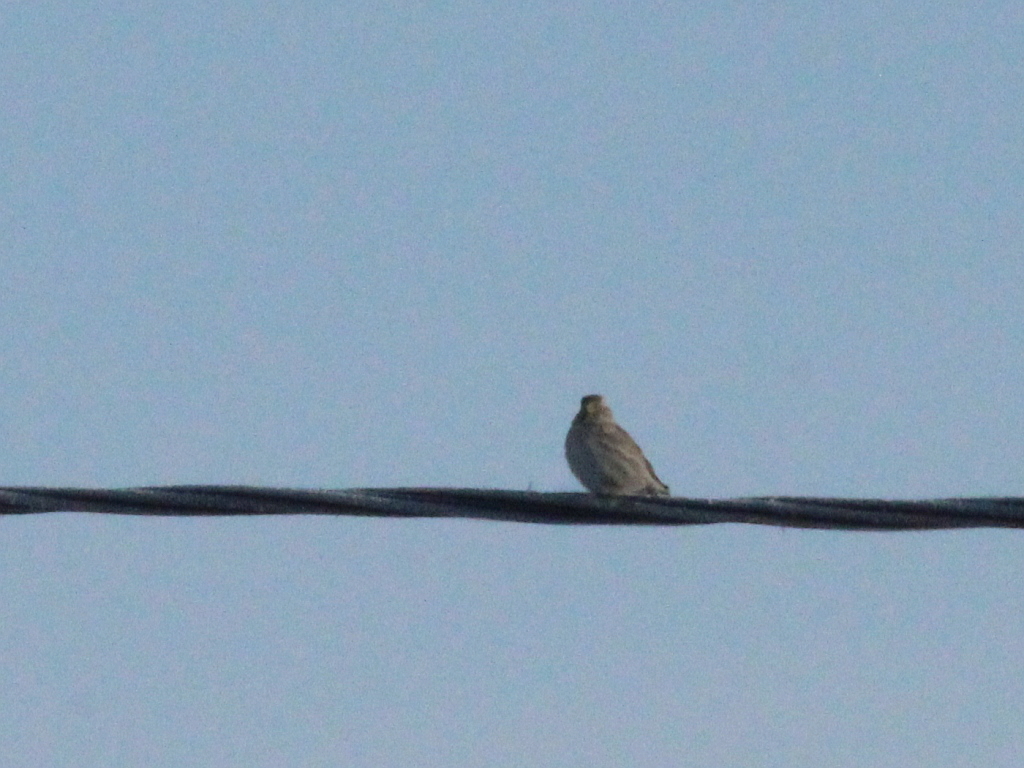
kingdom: Animalia
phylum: Chordata
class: Aves
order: Passeriformes
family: Passeridae
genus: Petronia
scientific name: Petronia petronia
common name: Rock sparrow
